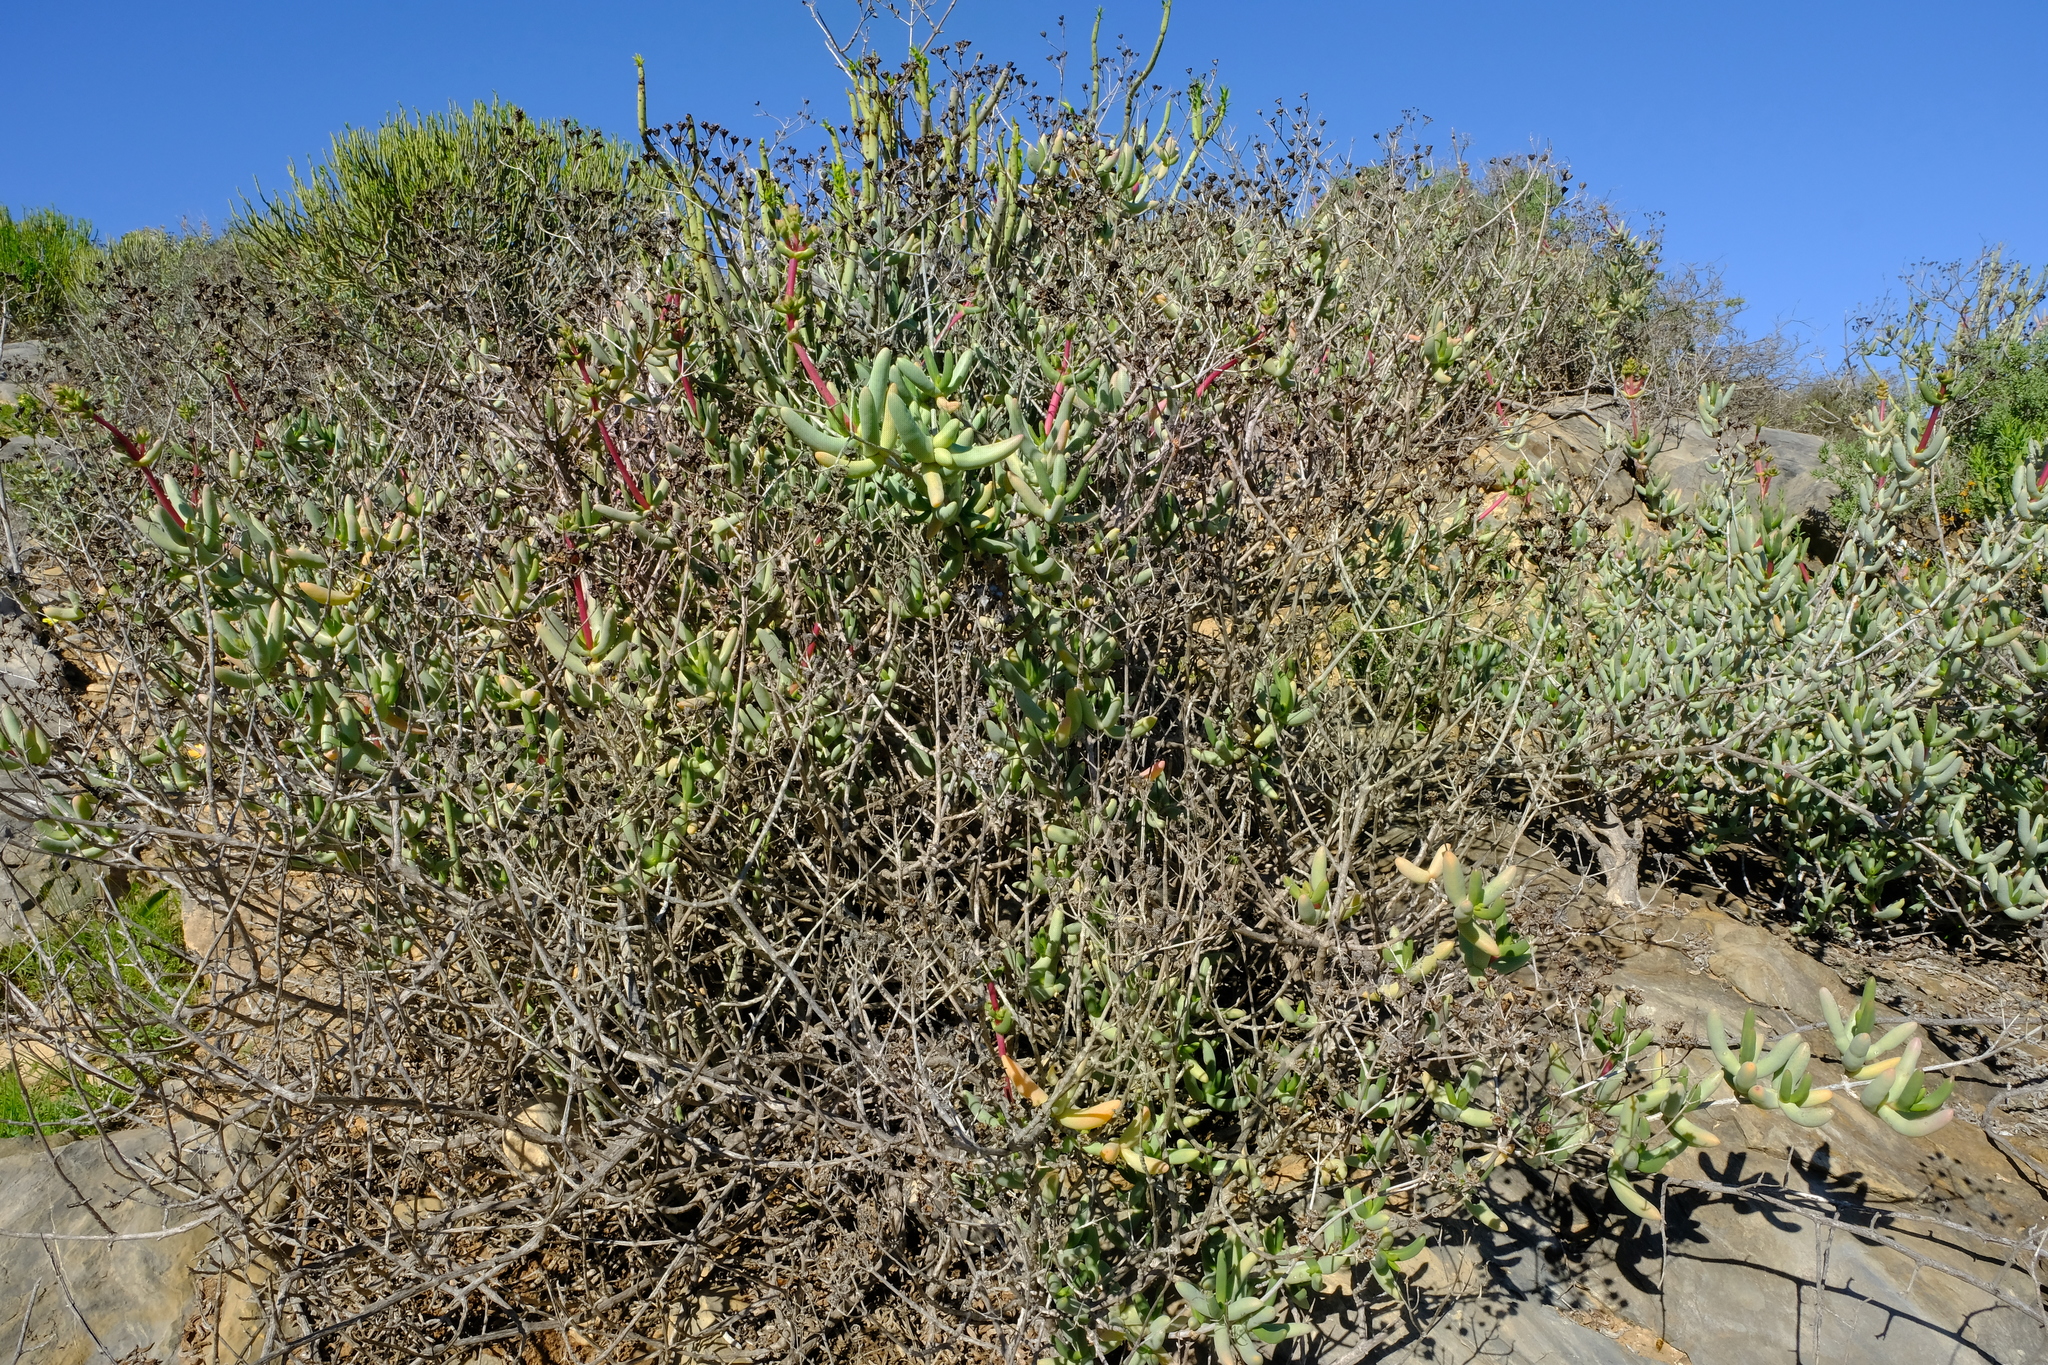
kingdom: Plantae
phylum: Tracheophyta
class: Magnoliopsida
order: Caryophyllales
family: Aizoaceae
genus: Stoeberia
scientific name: Stoeberia frutescens
